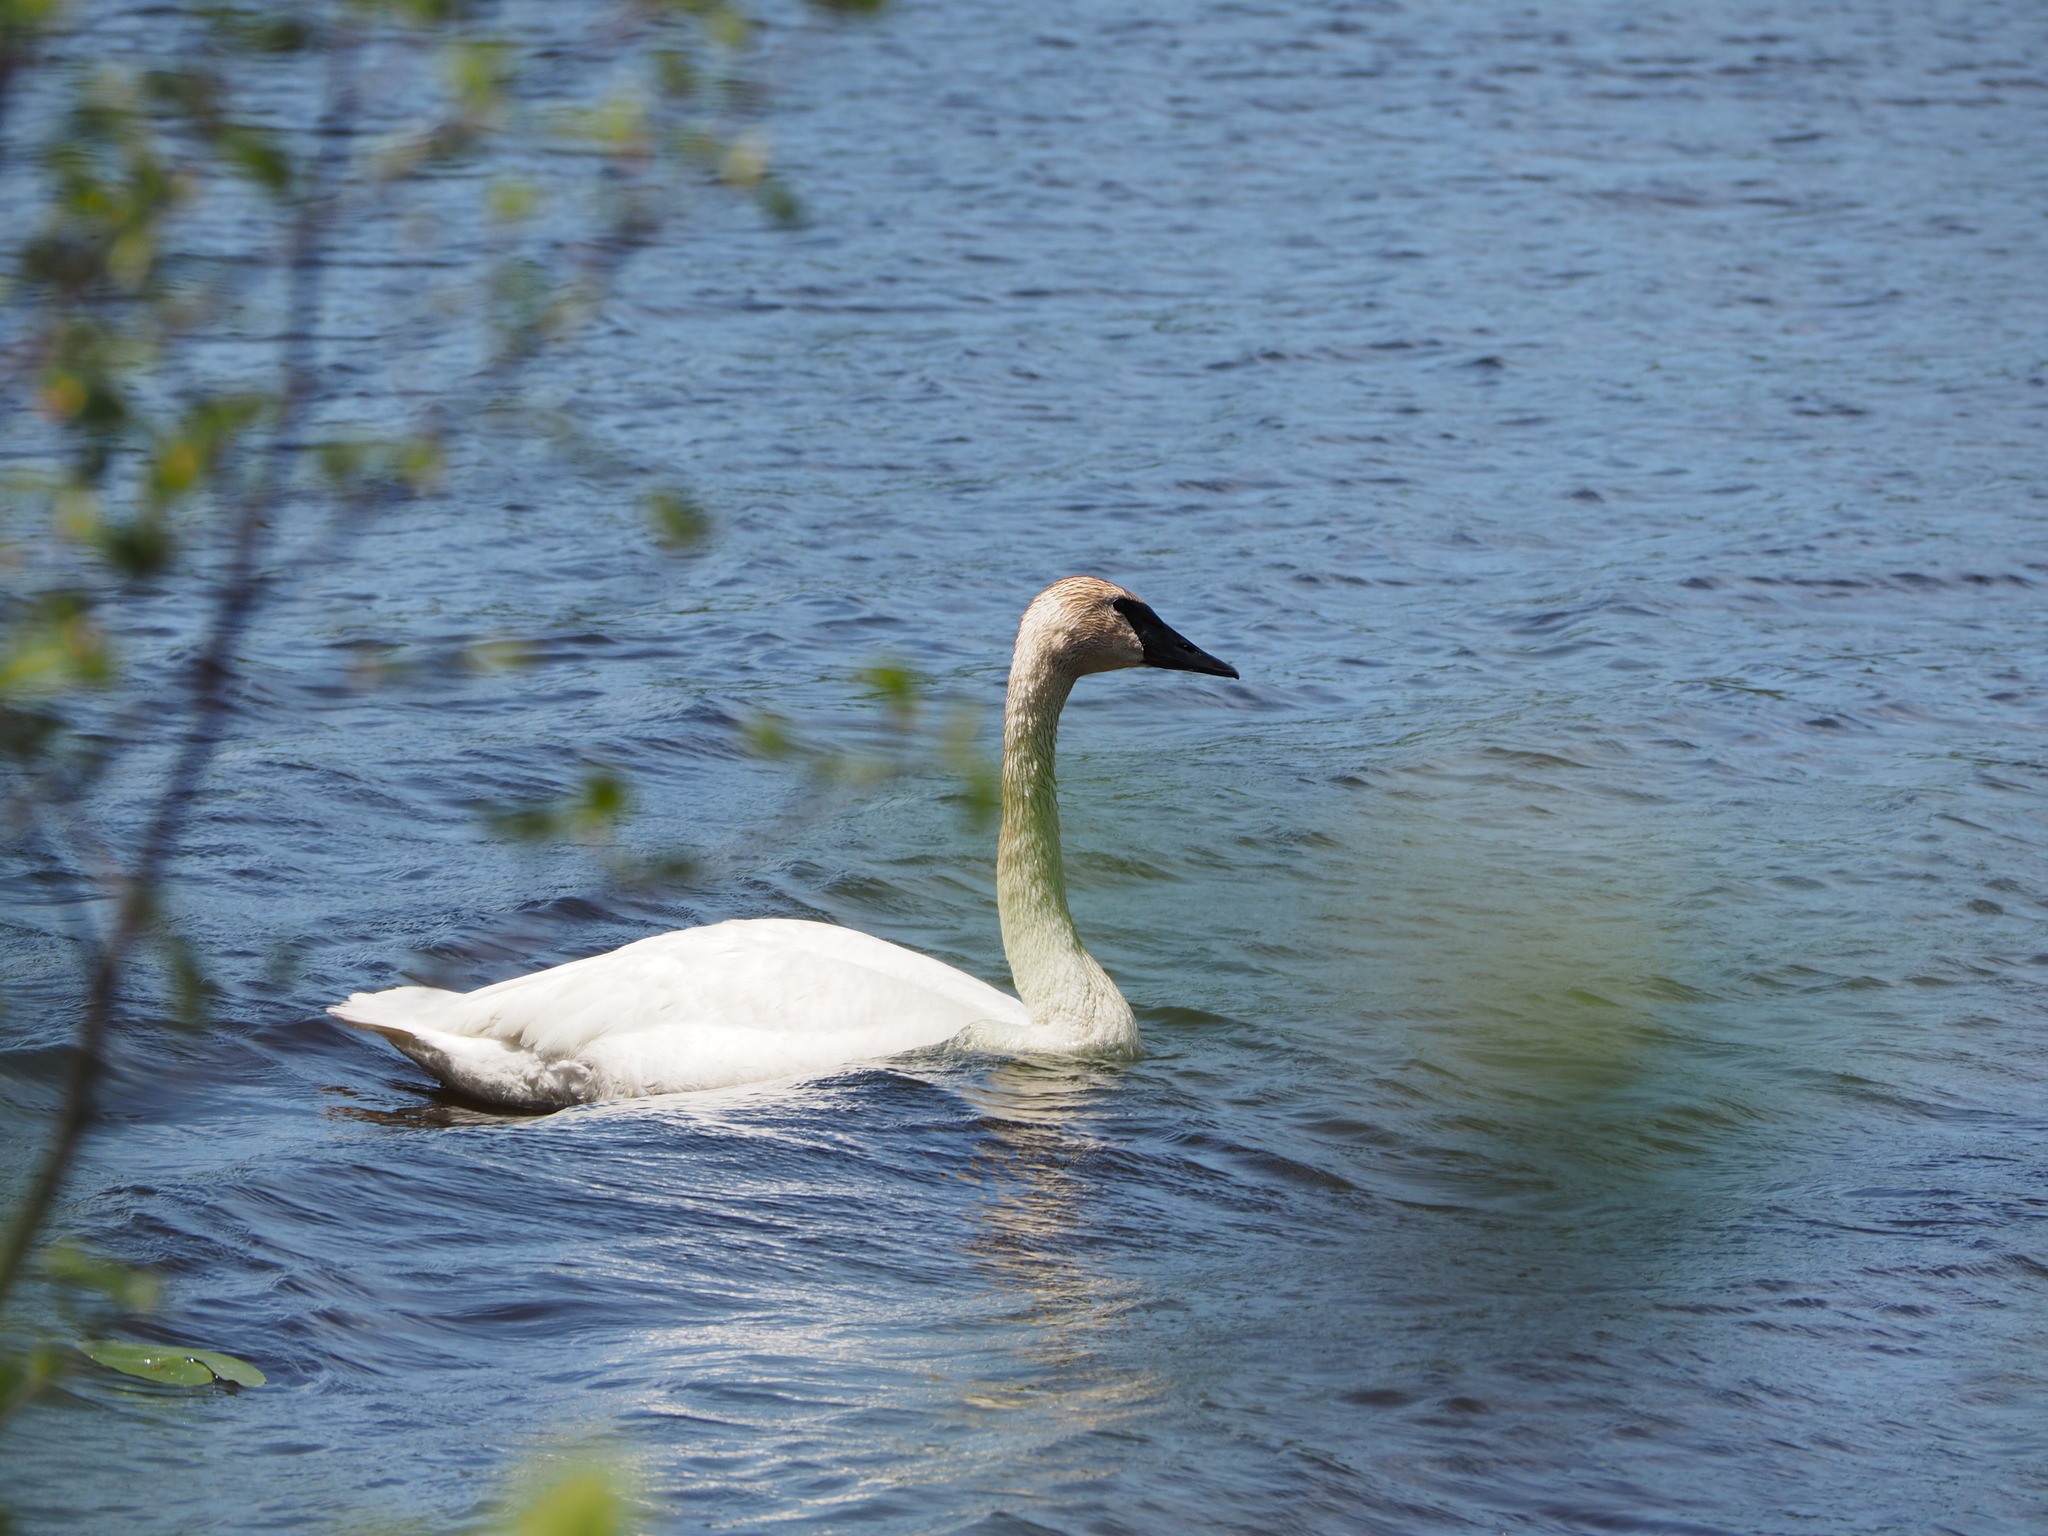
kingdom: Animalia
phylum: Chordata
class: Aves
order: Anseriformes
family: Anatidae
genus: Cygnus
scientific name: Cygnus buccinator
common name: Trumpeter swan
